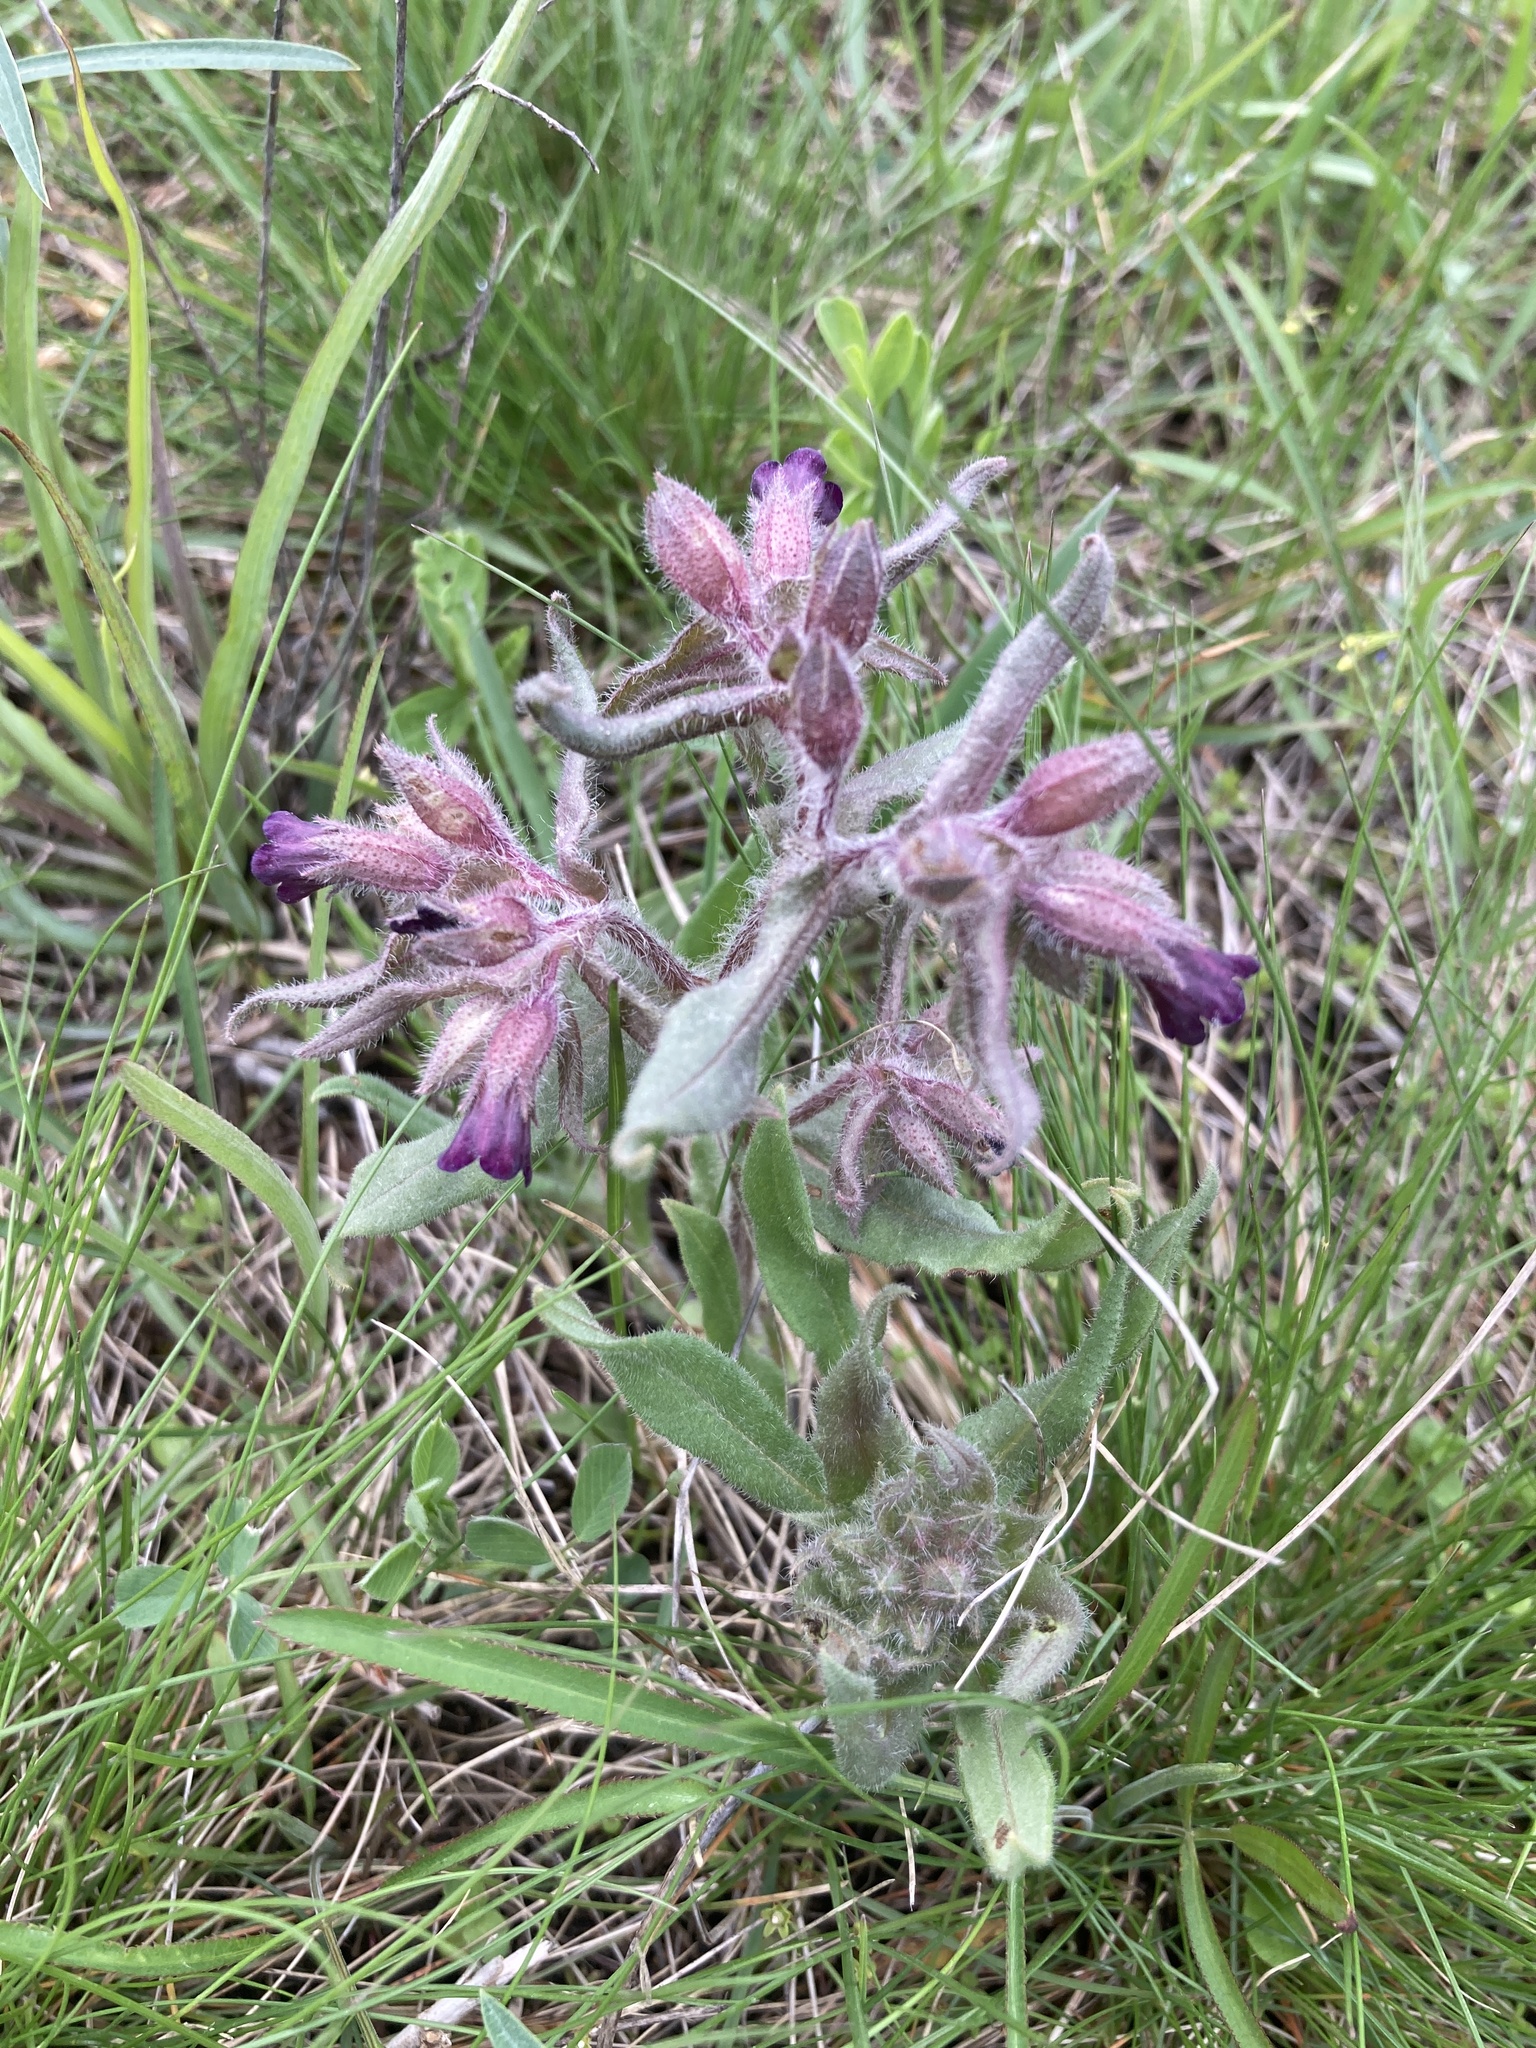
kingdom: Plantae
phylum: Tracheophyta
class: Magnoliopsida
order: Boraginales
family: Boraginaceae
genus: Nonea
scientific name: Nonea pulla
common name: Brown nonea
